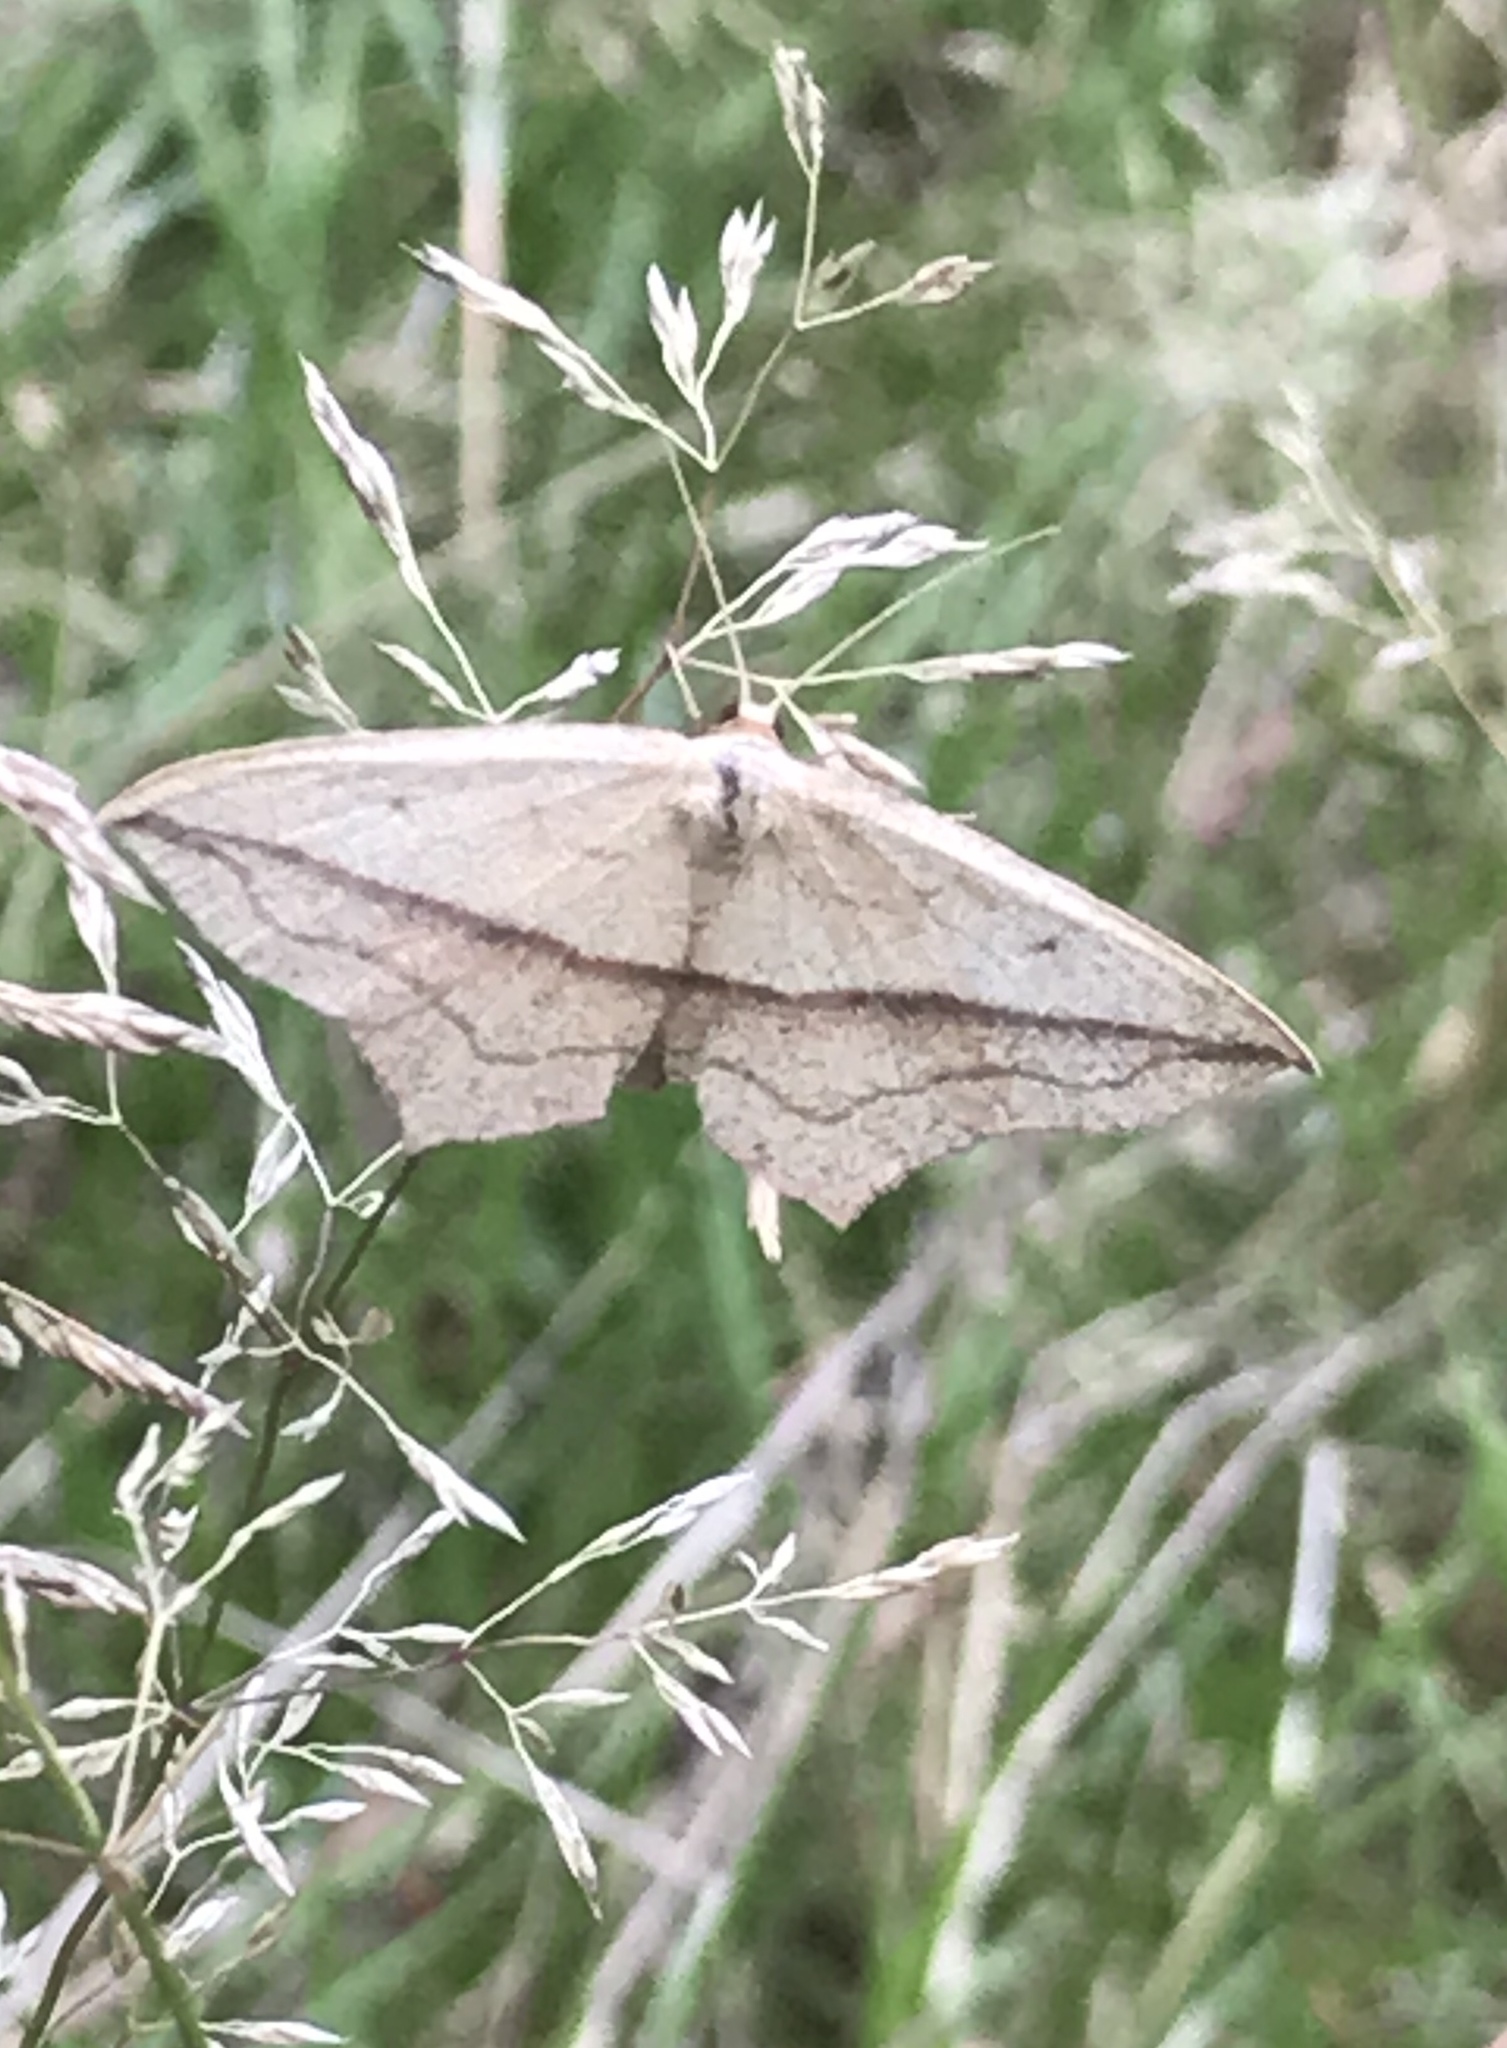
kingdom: Animalia
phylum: Arthropoda
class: Insecta
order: Lepidoptera
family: Geometridae
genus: Timandra
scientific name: Timandra comae
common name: Blood-vein
